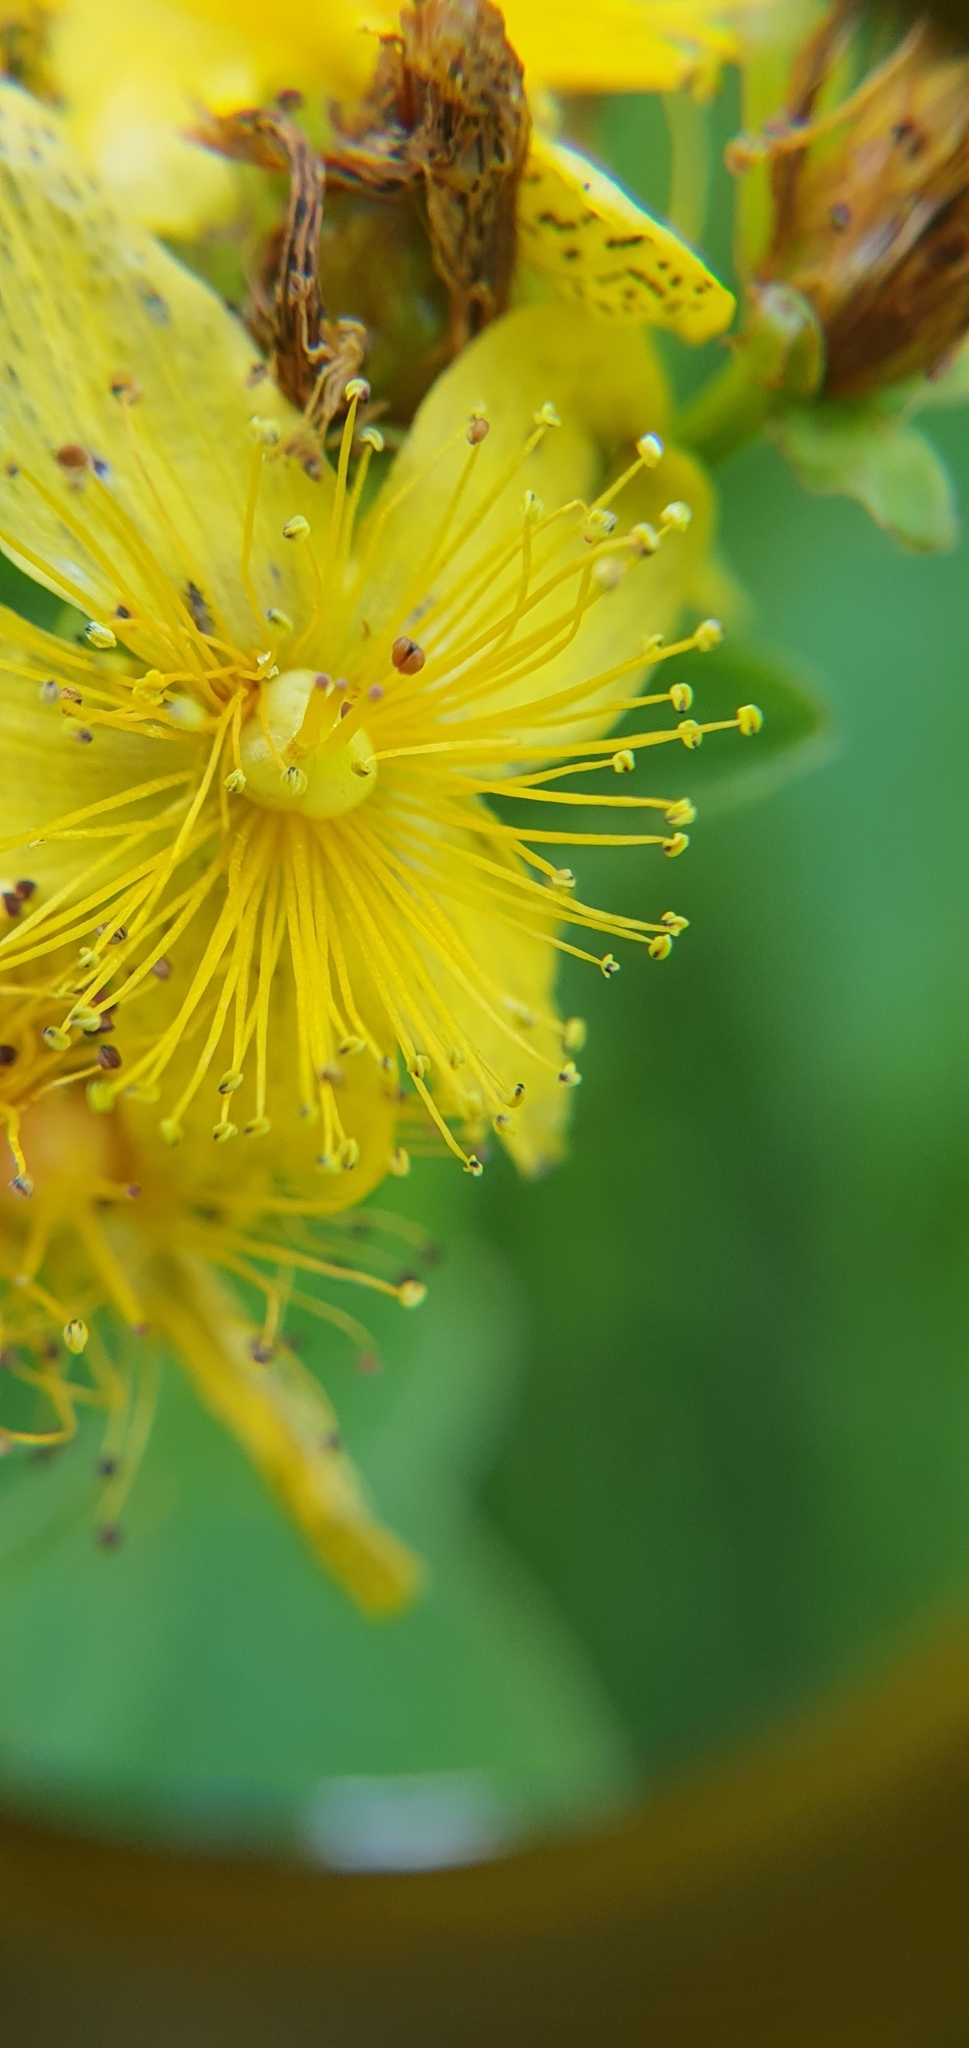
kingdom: Plantae
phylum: Tracheophyta
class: Magnoliopsida
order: Malpighiales
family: Hypericaceae
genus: Hypericum
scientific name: Hypericum maculatum
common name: Imperforate st. john's-wort
